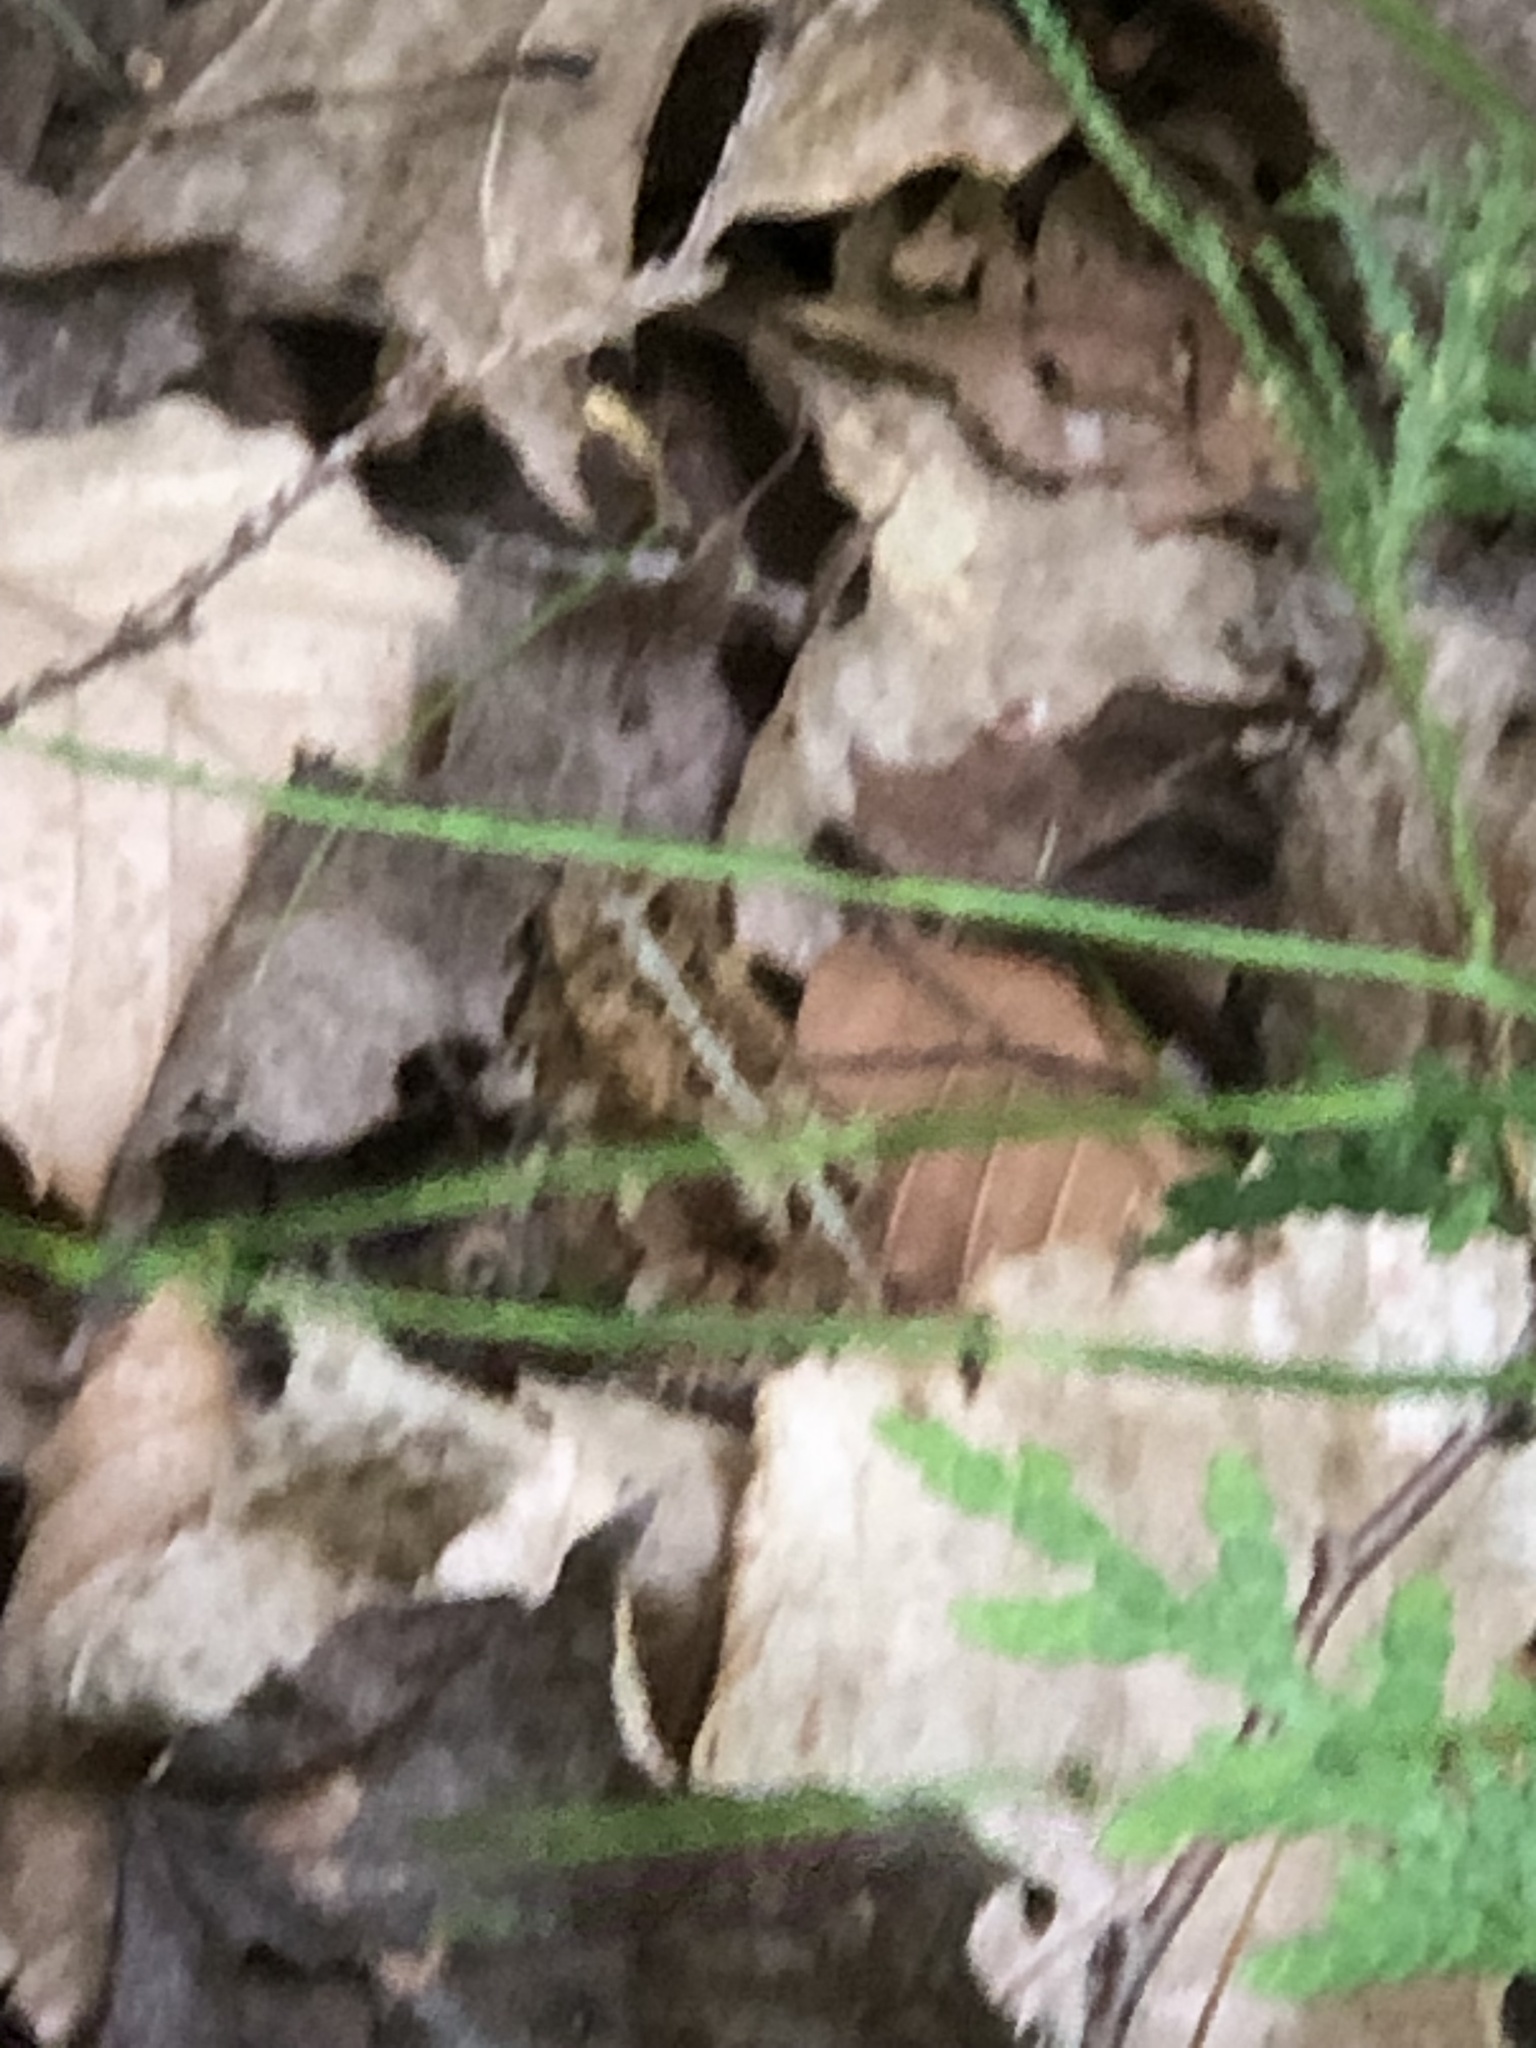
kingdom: Animalia
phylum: Chordata
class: Amphibia
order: Anura
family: Bufonidae
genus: Anaxyrus
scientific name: Anaxyrus americanus
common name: American toad
